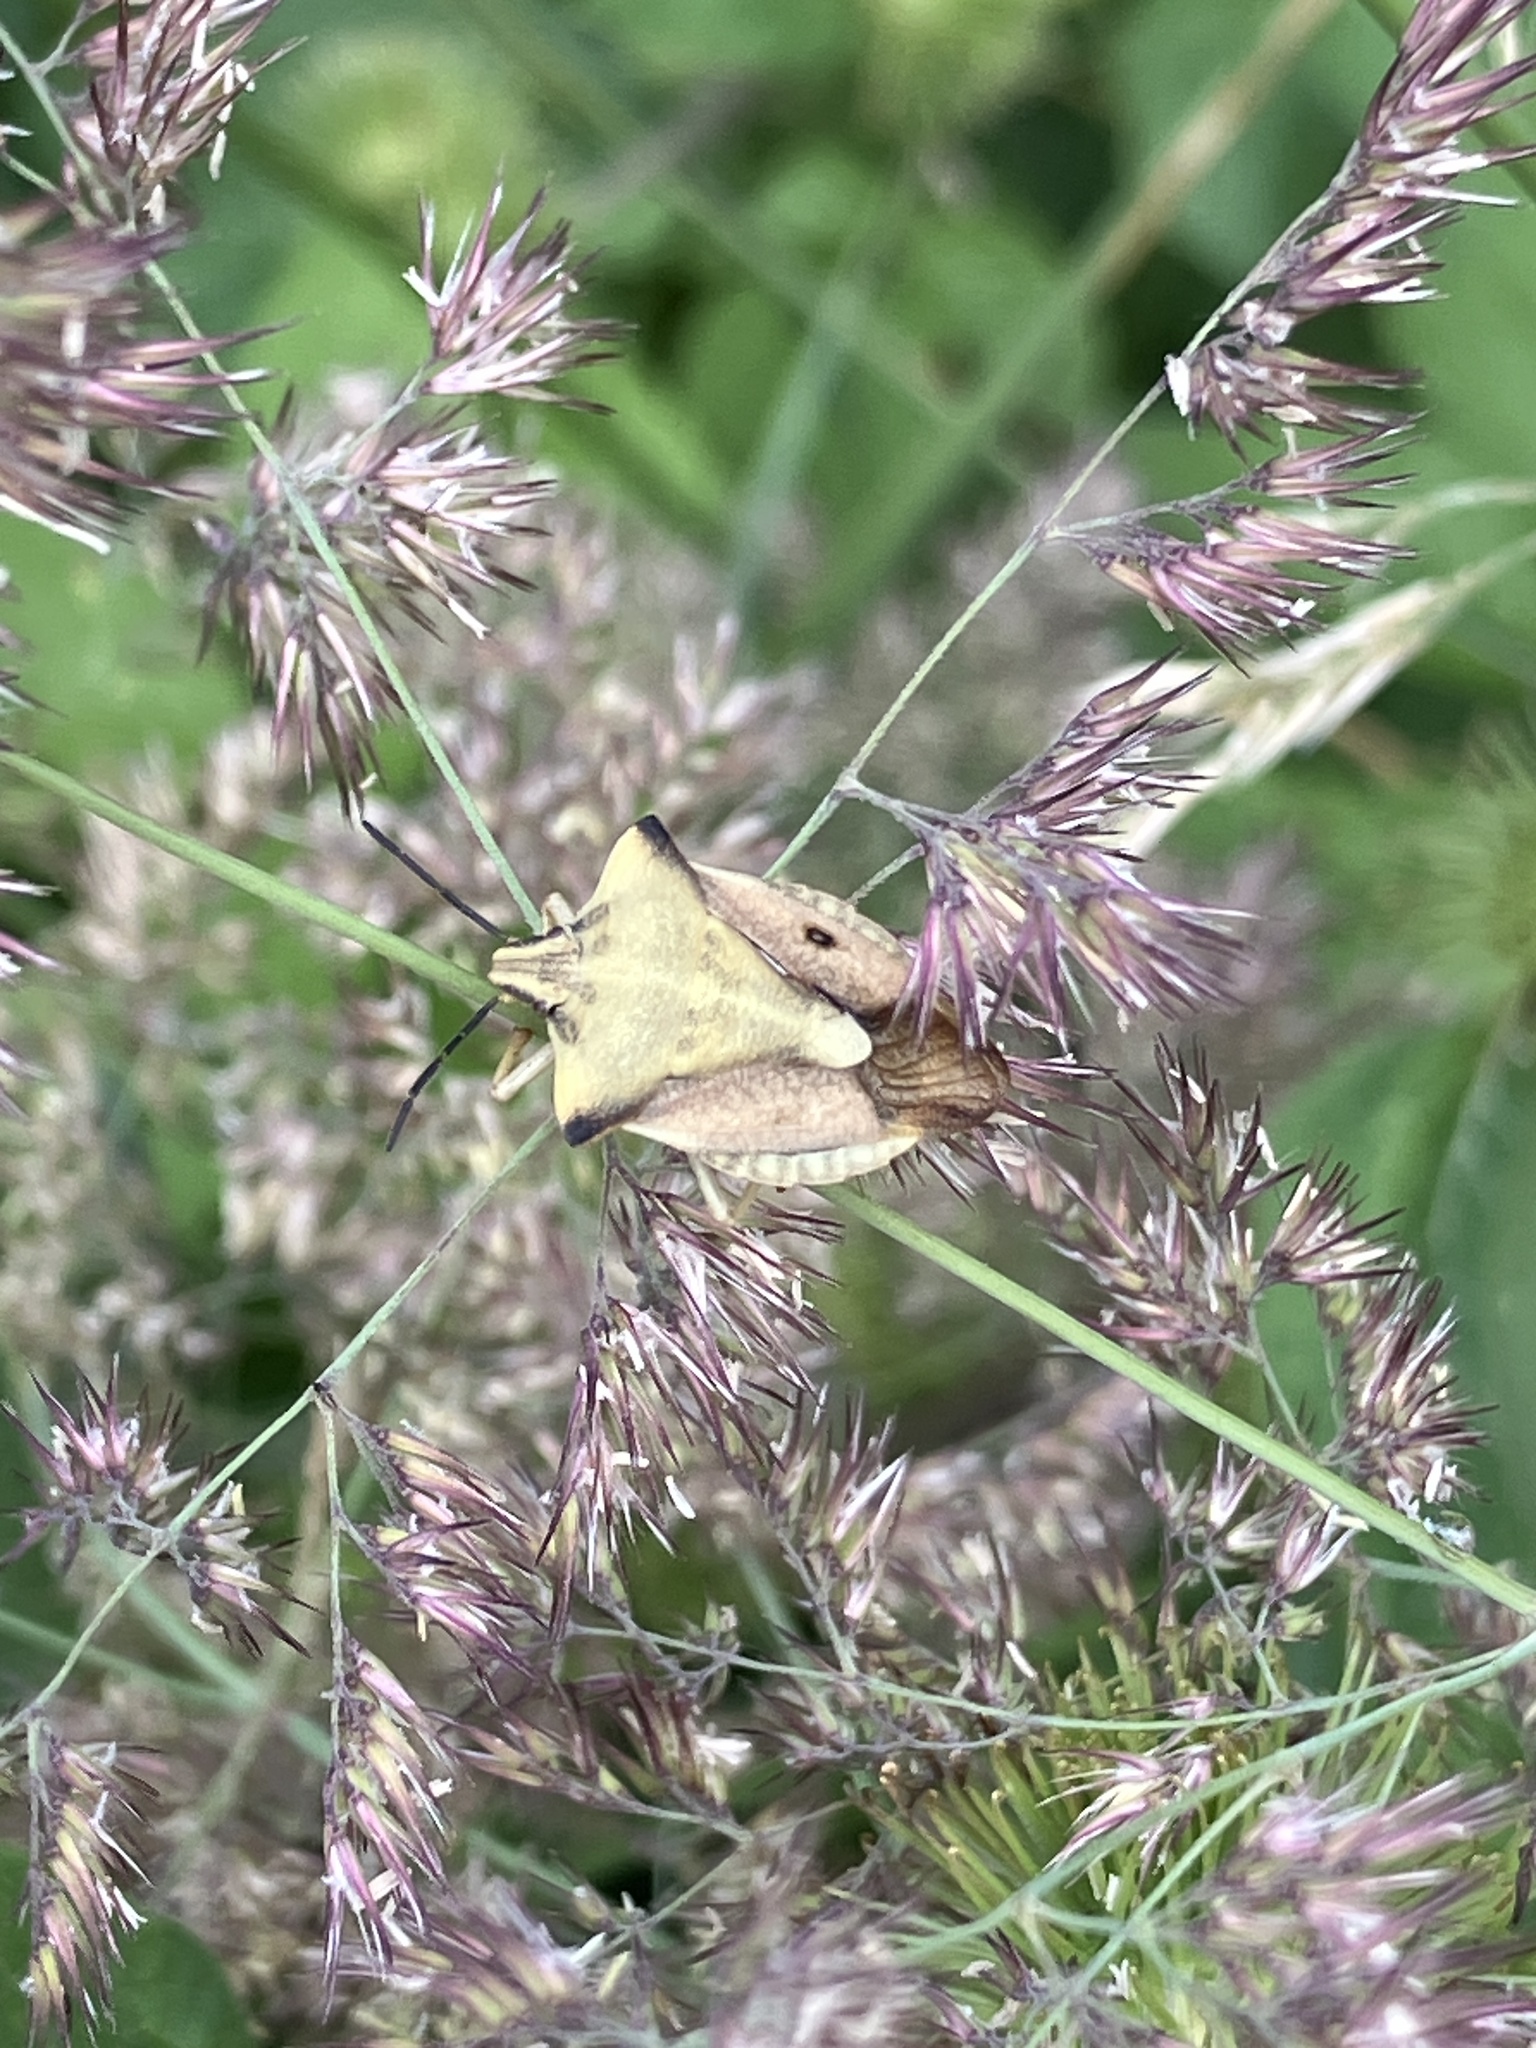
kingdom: Animalia
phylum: Arthropoda
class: Insecta
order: Hemiptera
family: Pentatomidae
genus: Carpocoris
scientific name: Carpocoris fuscispinus
